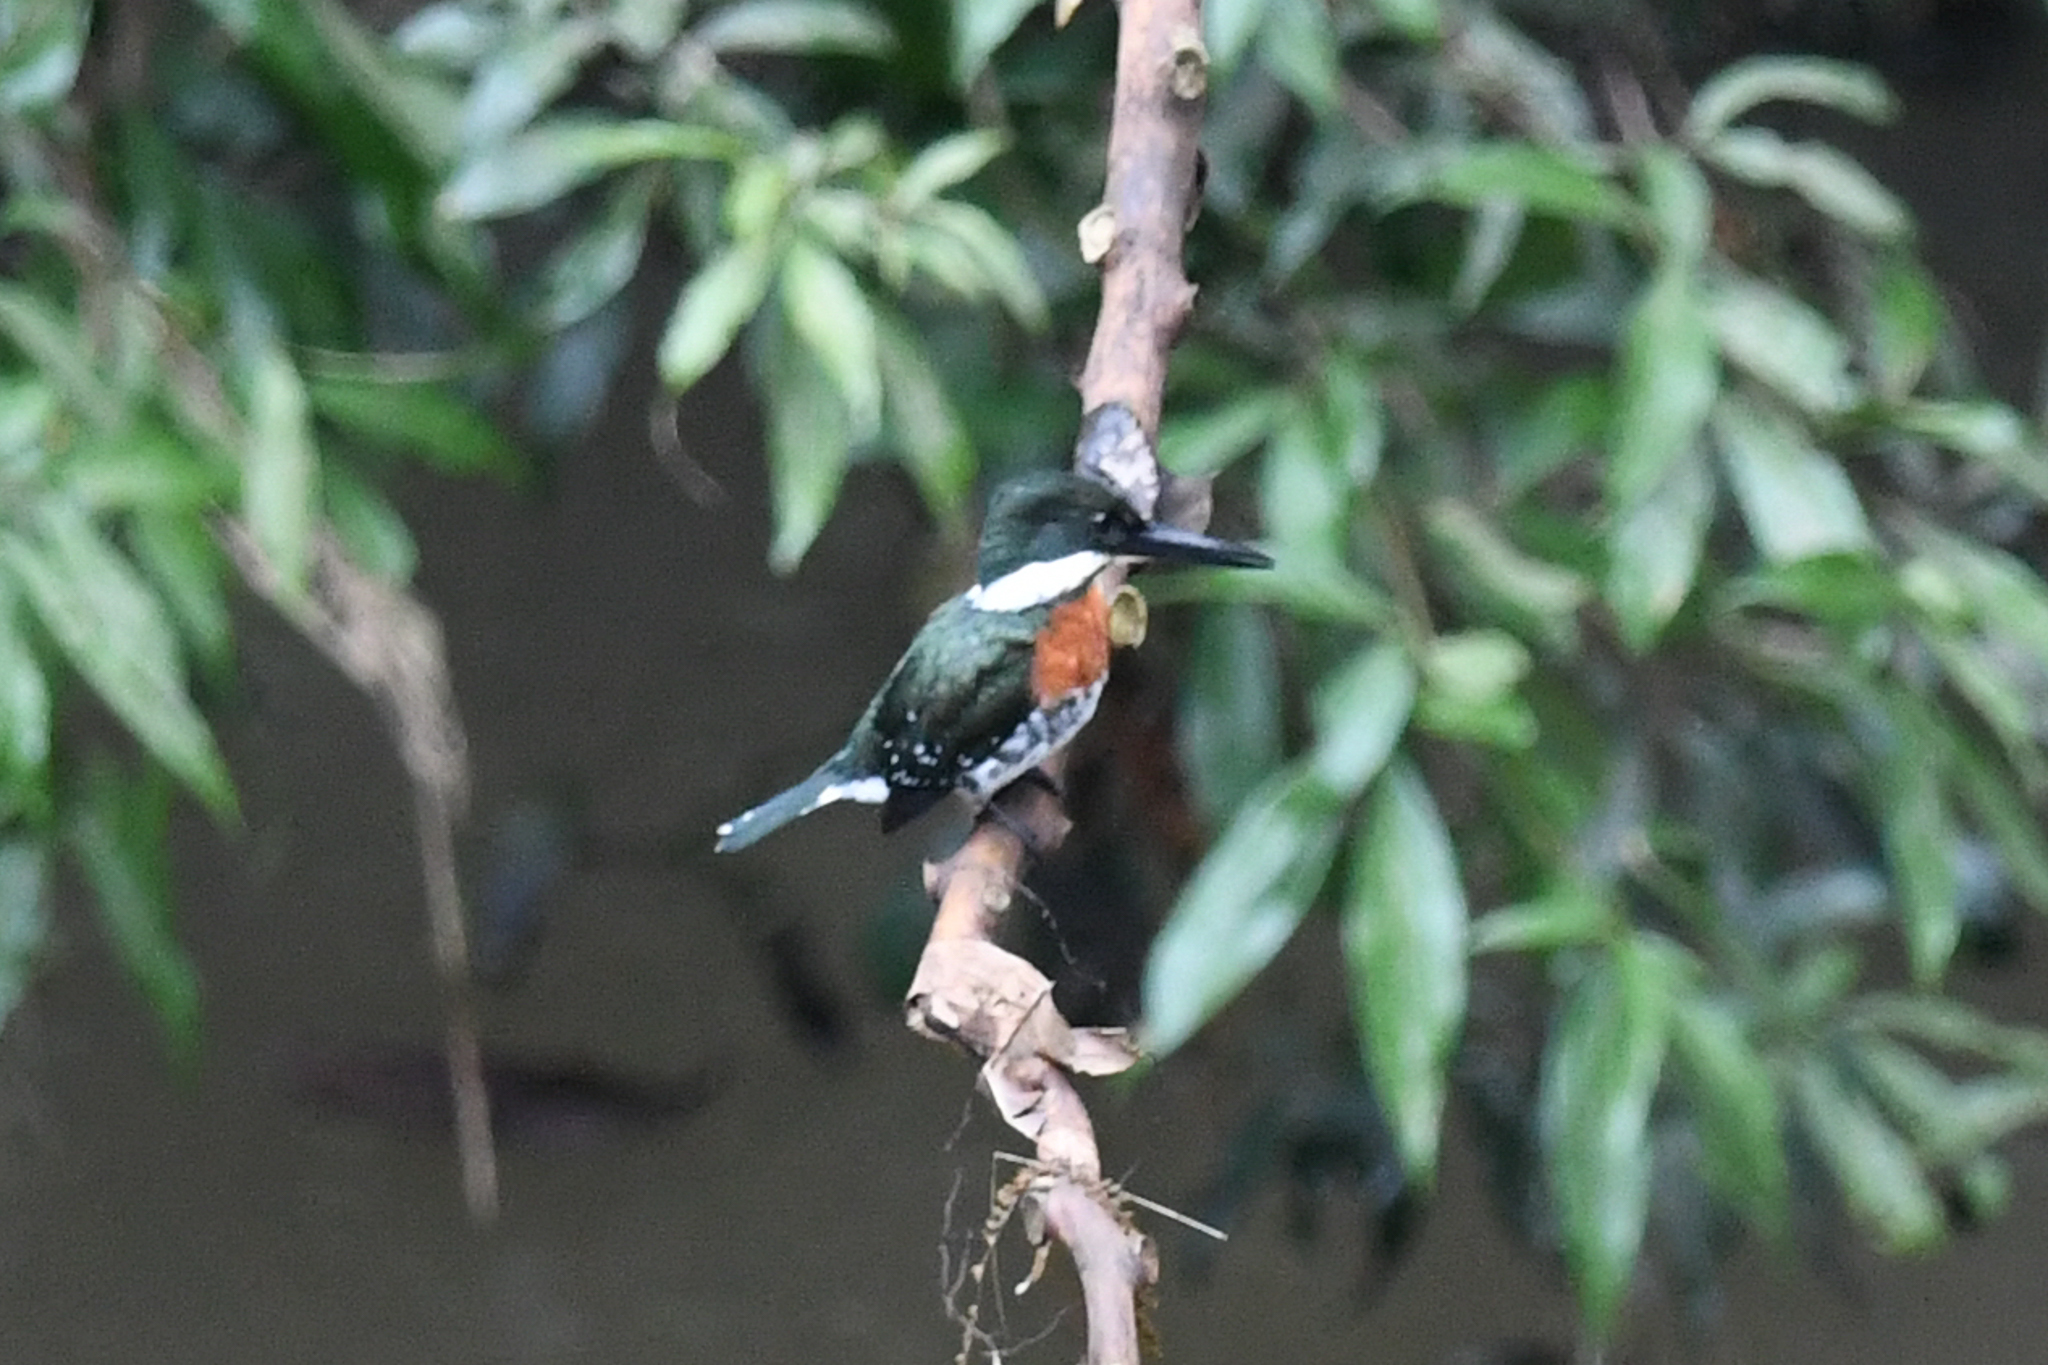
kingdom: Animalia
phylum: Chordata
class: Aves
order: Coraciiformes
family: Alcedinidae
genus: Chloroceryle
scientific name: Chloroceryle americana
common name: Green kingfisher
